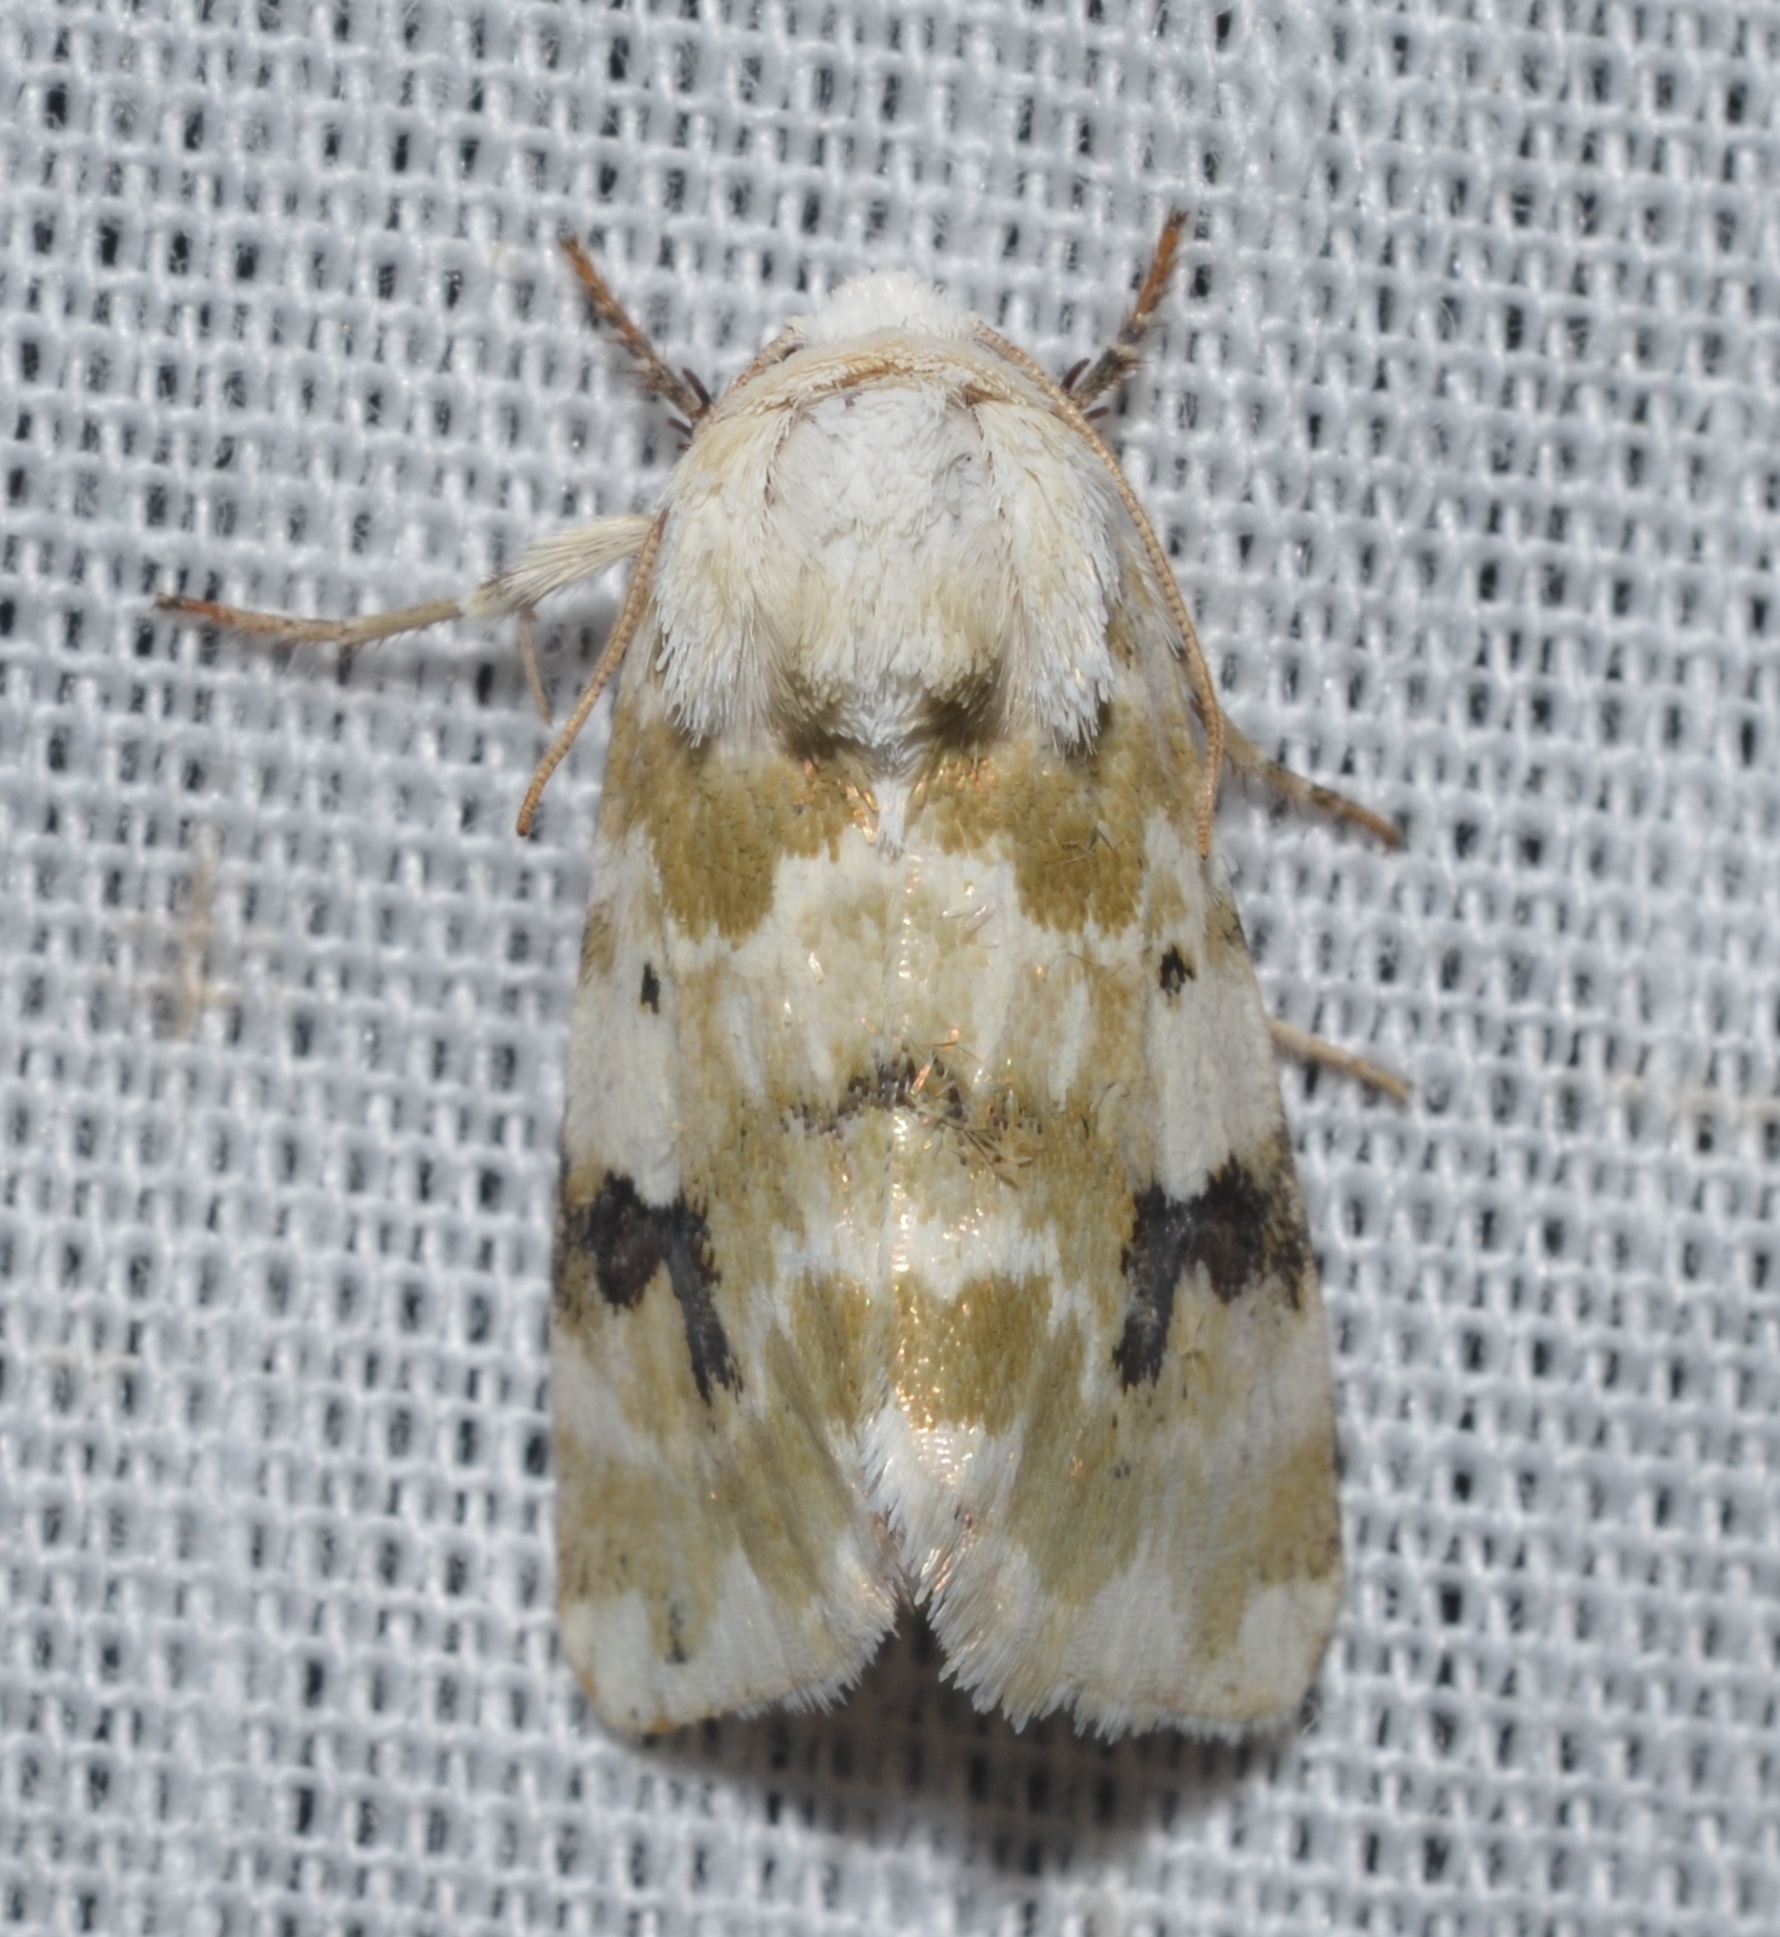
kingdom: Animalia
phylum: Arthropoda
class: Insecta
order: Lepidoptera
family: Noctuidae
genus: Schinia
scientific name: Schinia nundina
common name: Goldenrod flower moth
